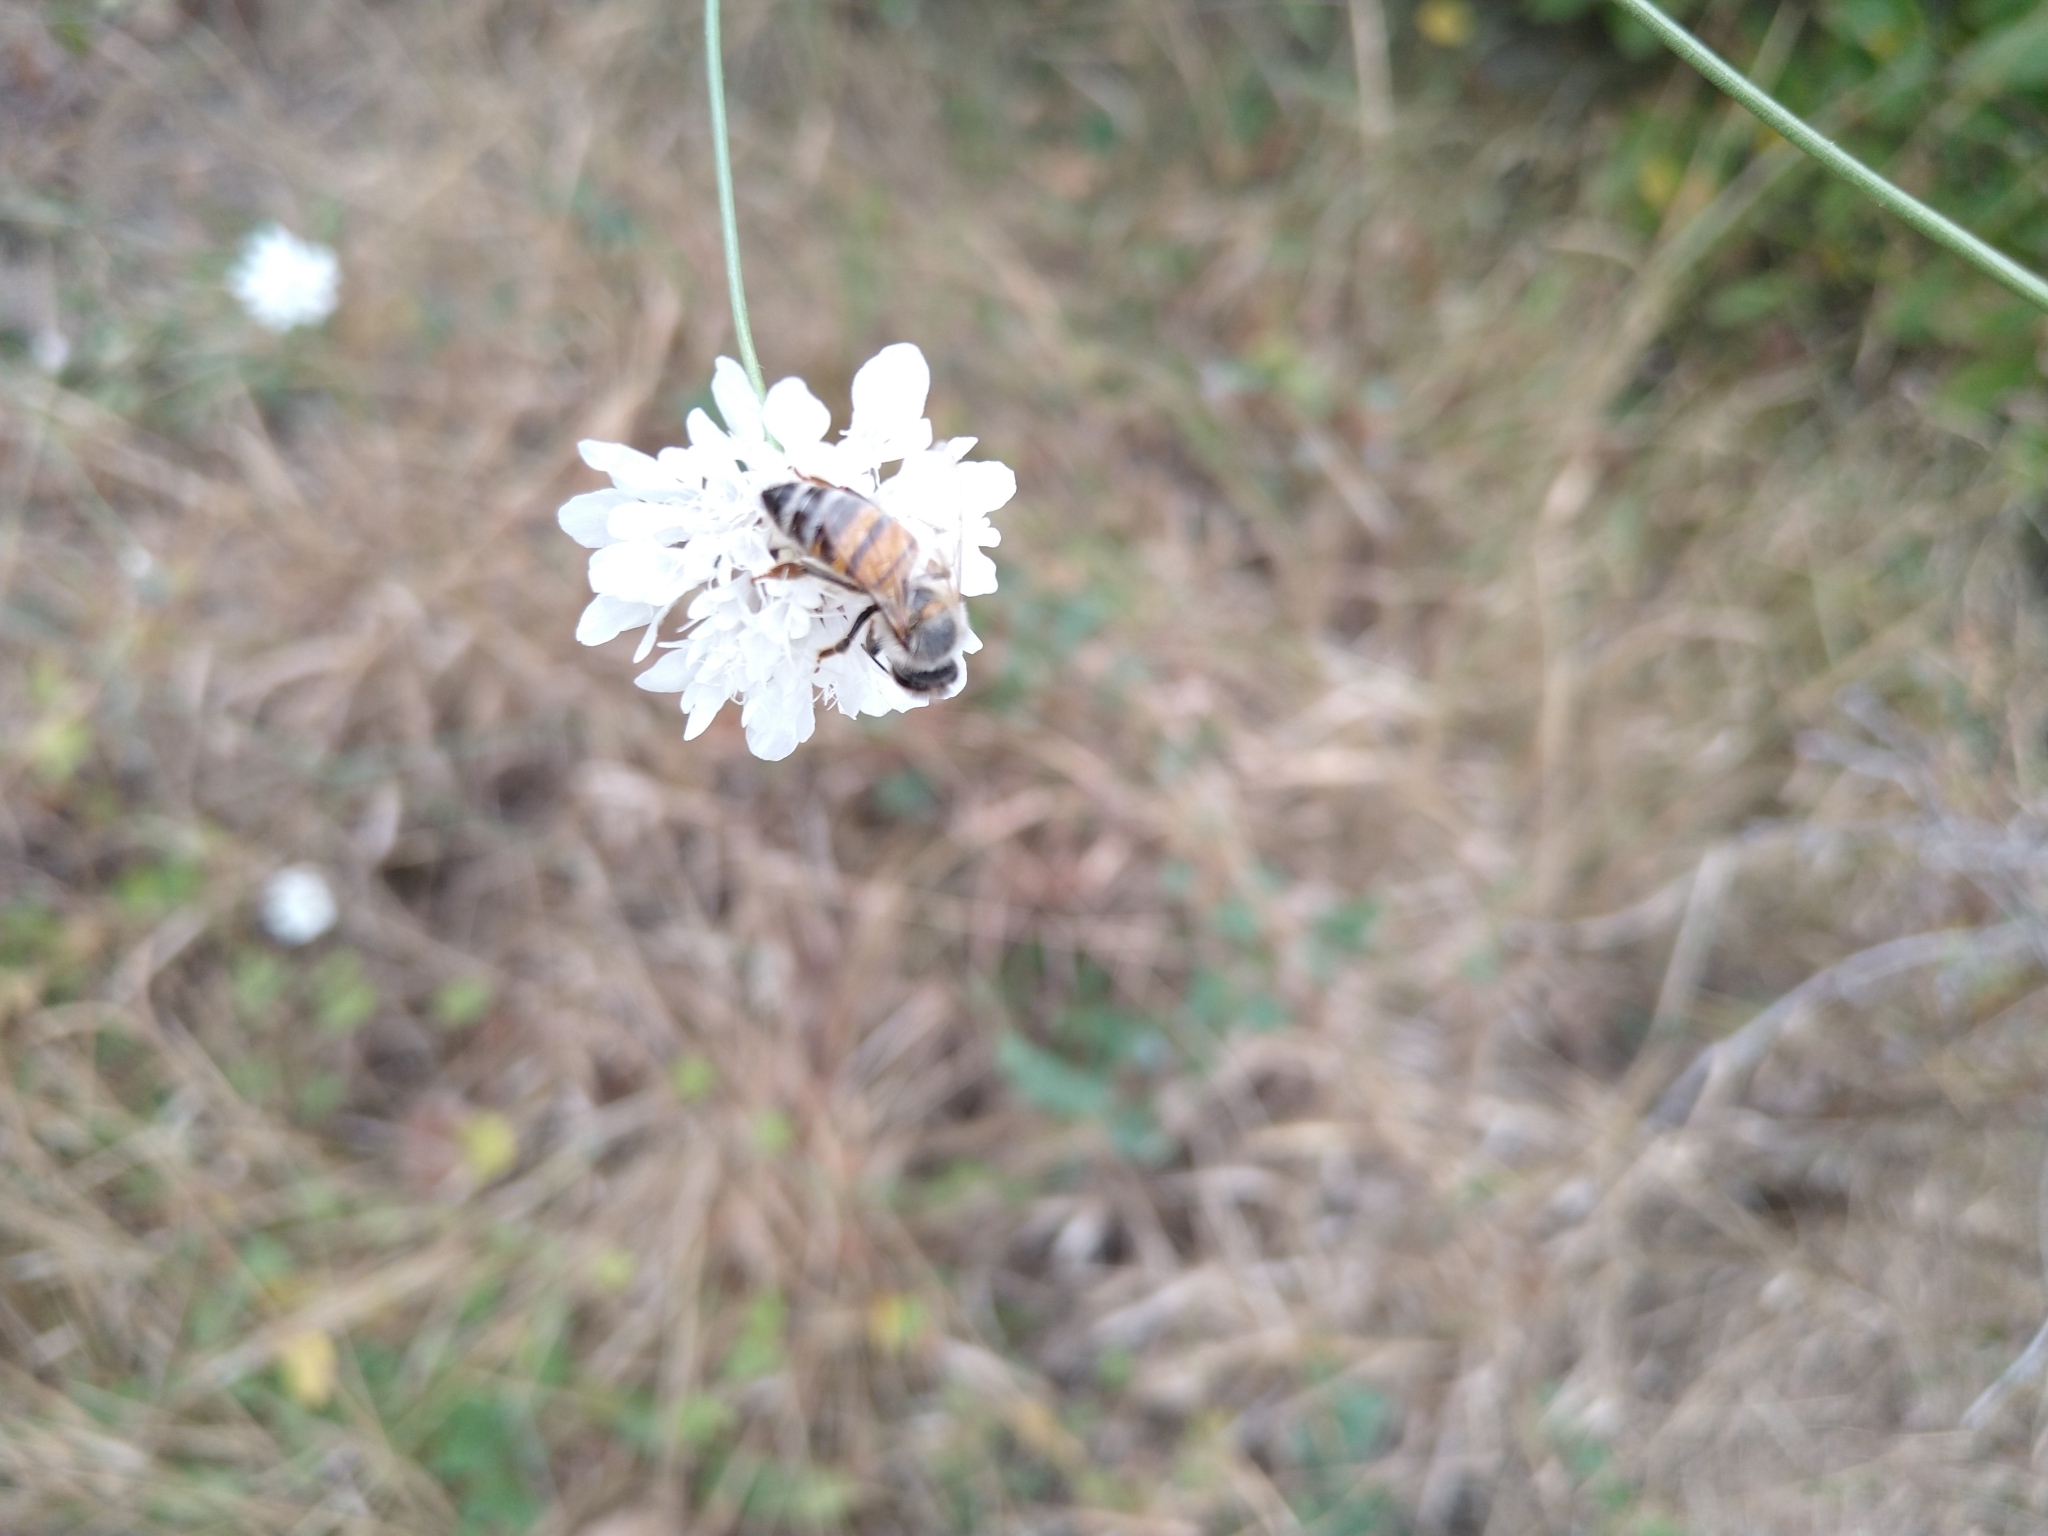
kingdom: Animalia
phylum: Arthropoda
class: Insecta
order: Hymenoptera
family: Apidae
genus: Apis
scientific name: Apis mellifera
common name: Honey bee
